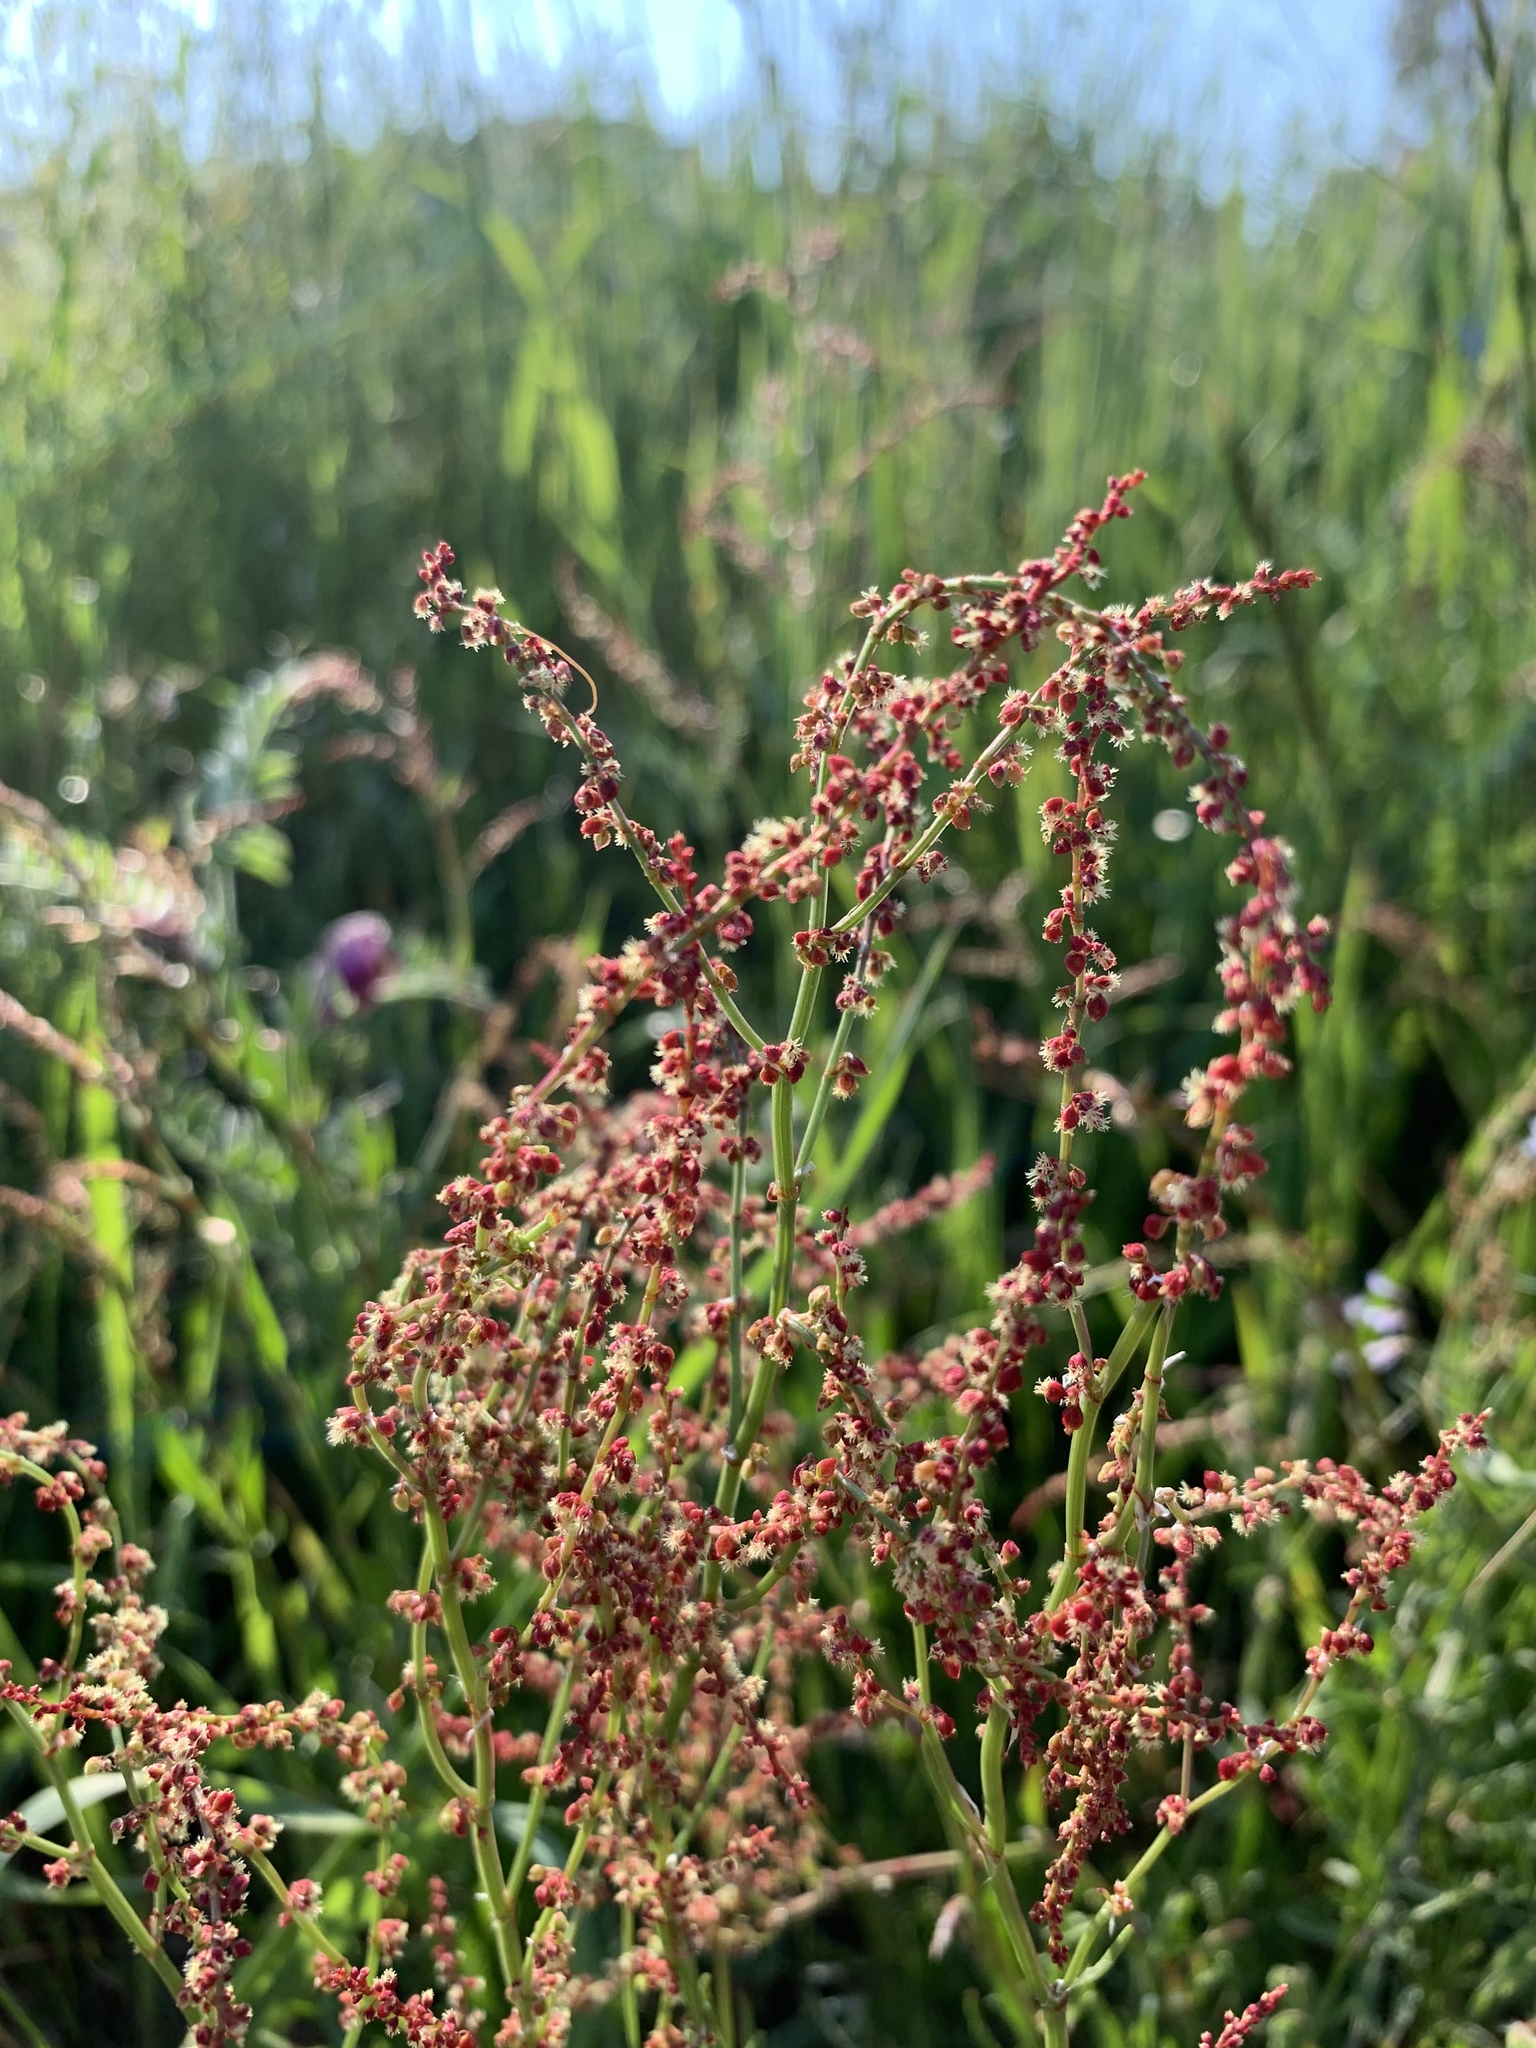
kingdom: Plantae
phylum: Tracheophyta
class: Magnoliopsida
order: Caryophyllales
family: Polygonaceae
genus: Rumex
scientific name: Rumex acetosella
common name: Common sheep sorrel
